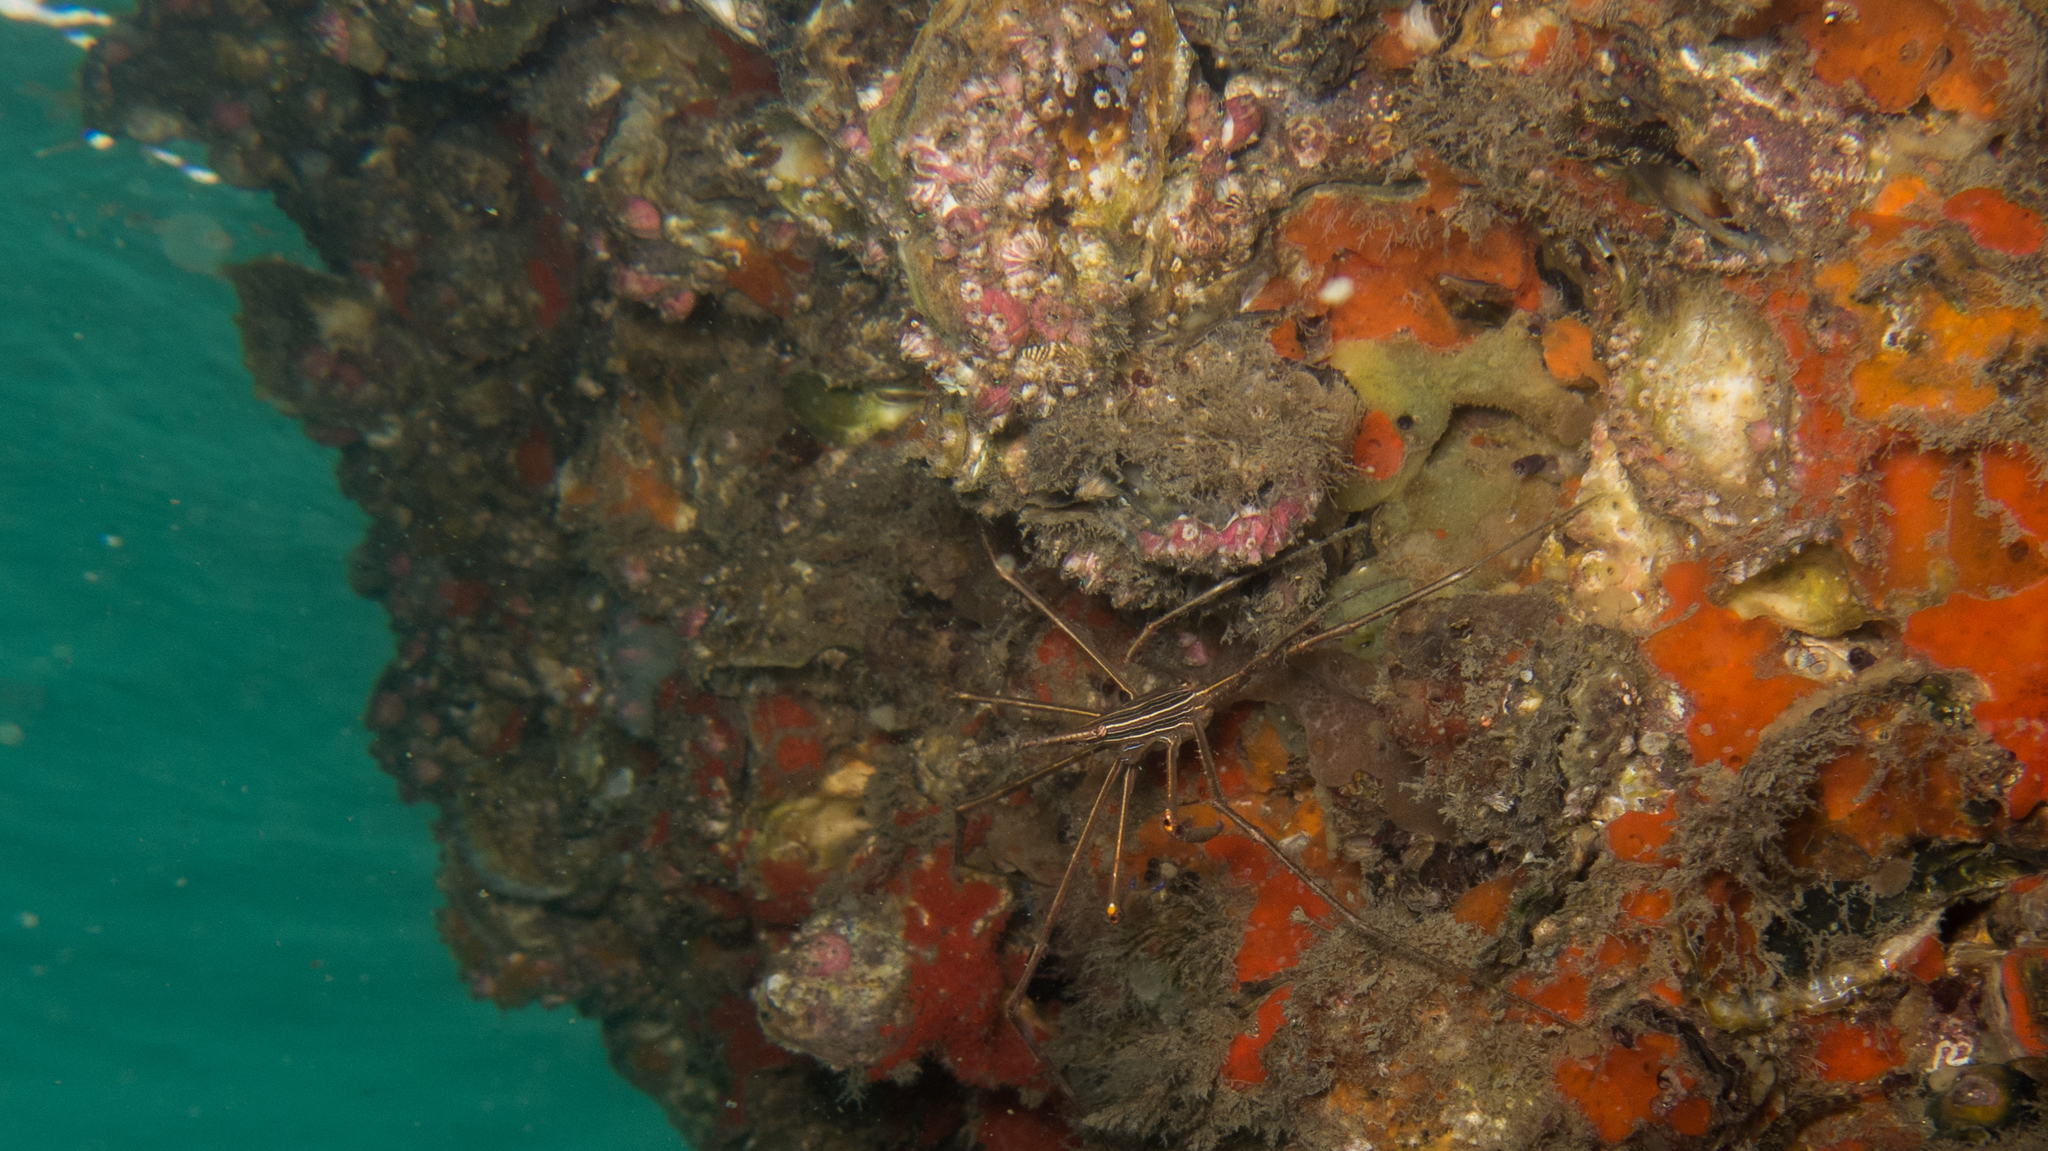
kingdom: Animalia
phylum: Arthropoda
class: Malacostraca
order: Decapoda
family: Inachoididae
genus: Stenorhynchus
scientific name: Stenorhynchus seticornis
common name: Arrow crab
